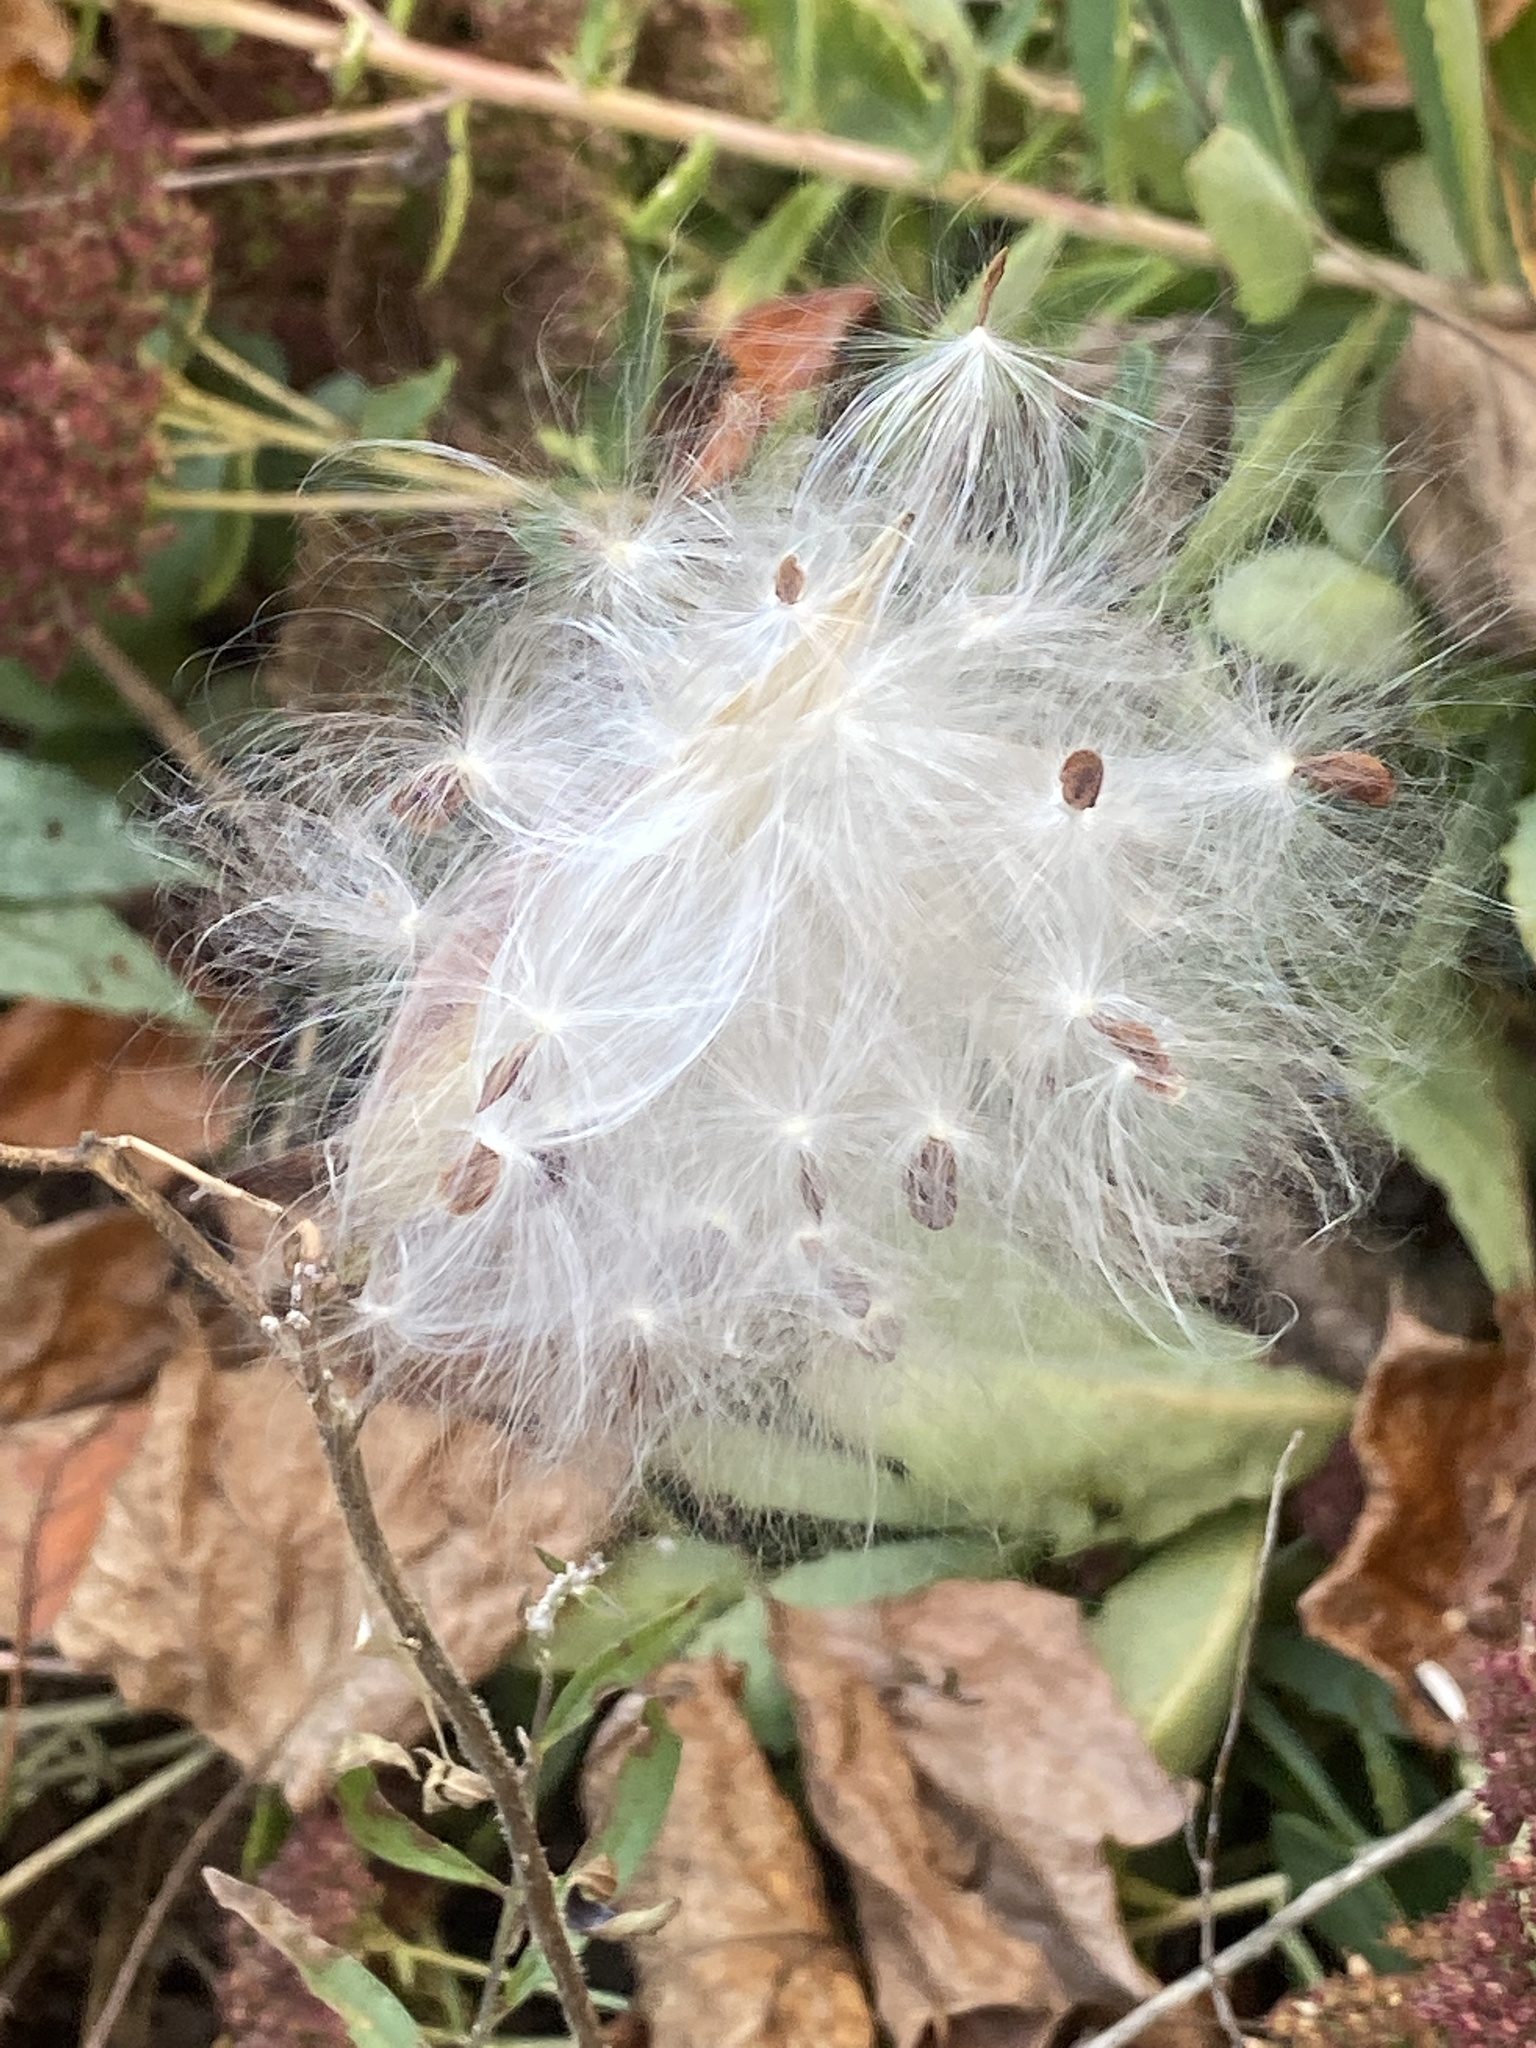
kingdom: Plantae
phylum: Tracheophyta
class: Magnoliopsida
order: Gentianales
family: Apocynaceae
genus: Asclepias
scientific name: Asclepias tuberosa
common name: Butterfly milkweed
